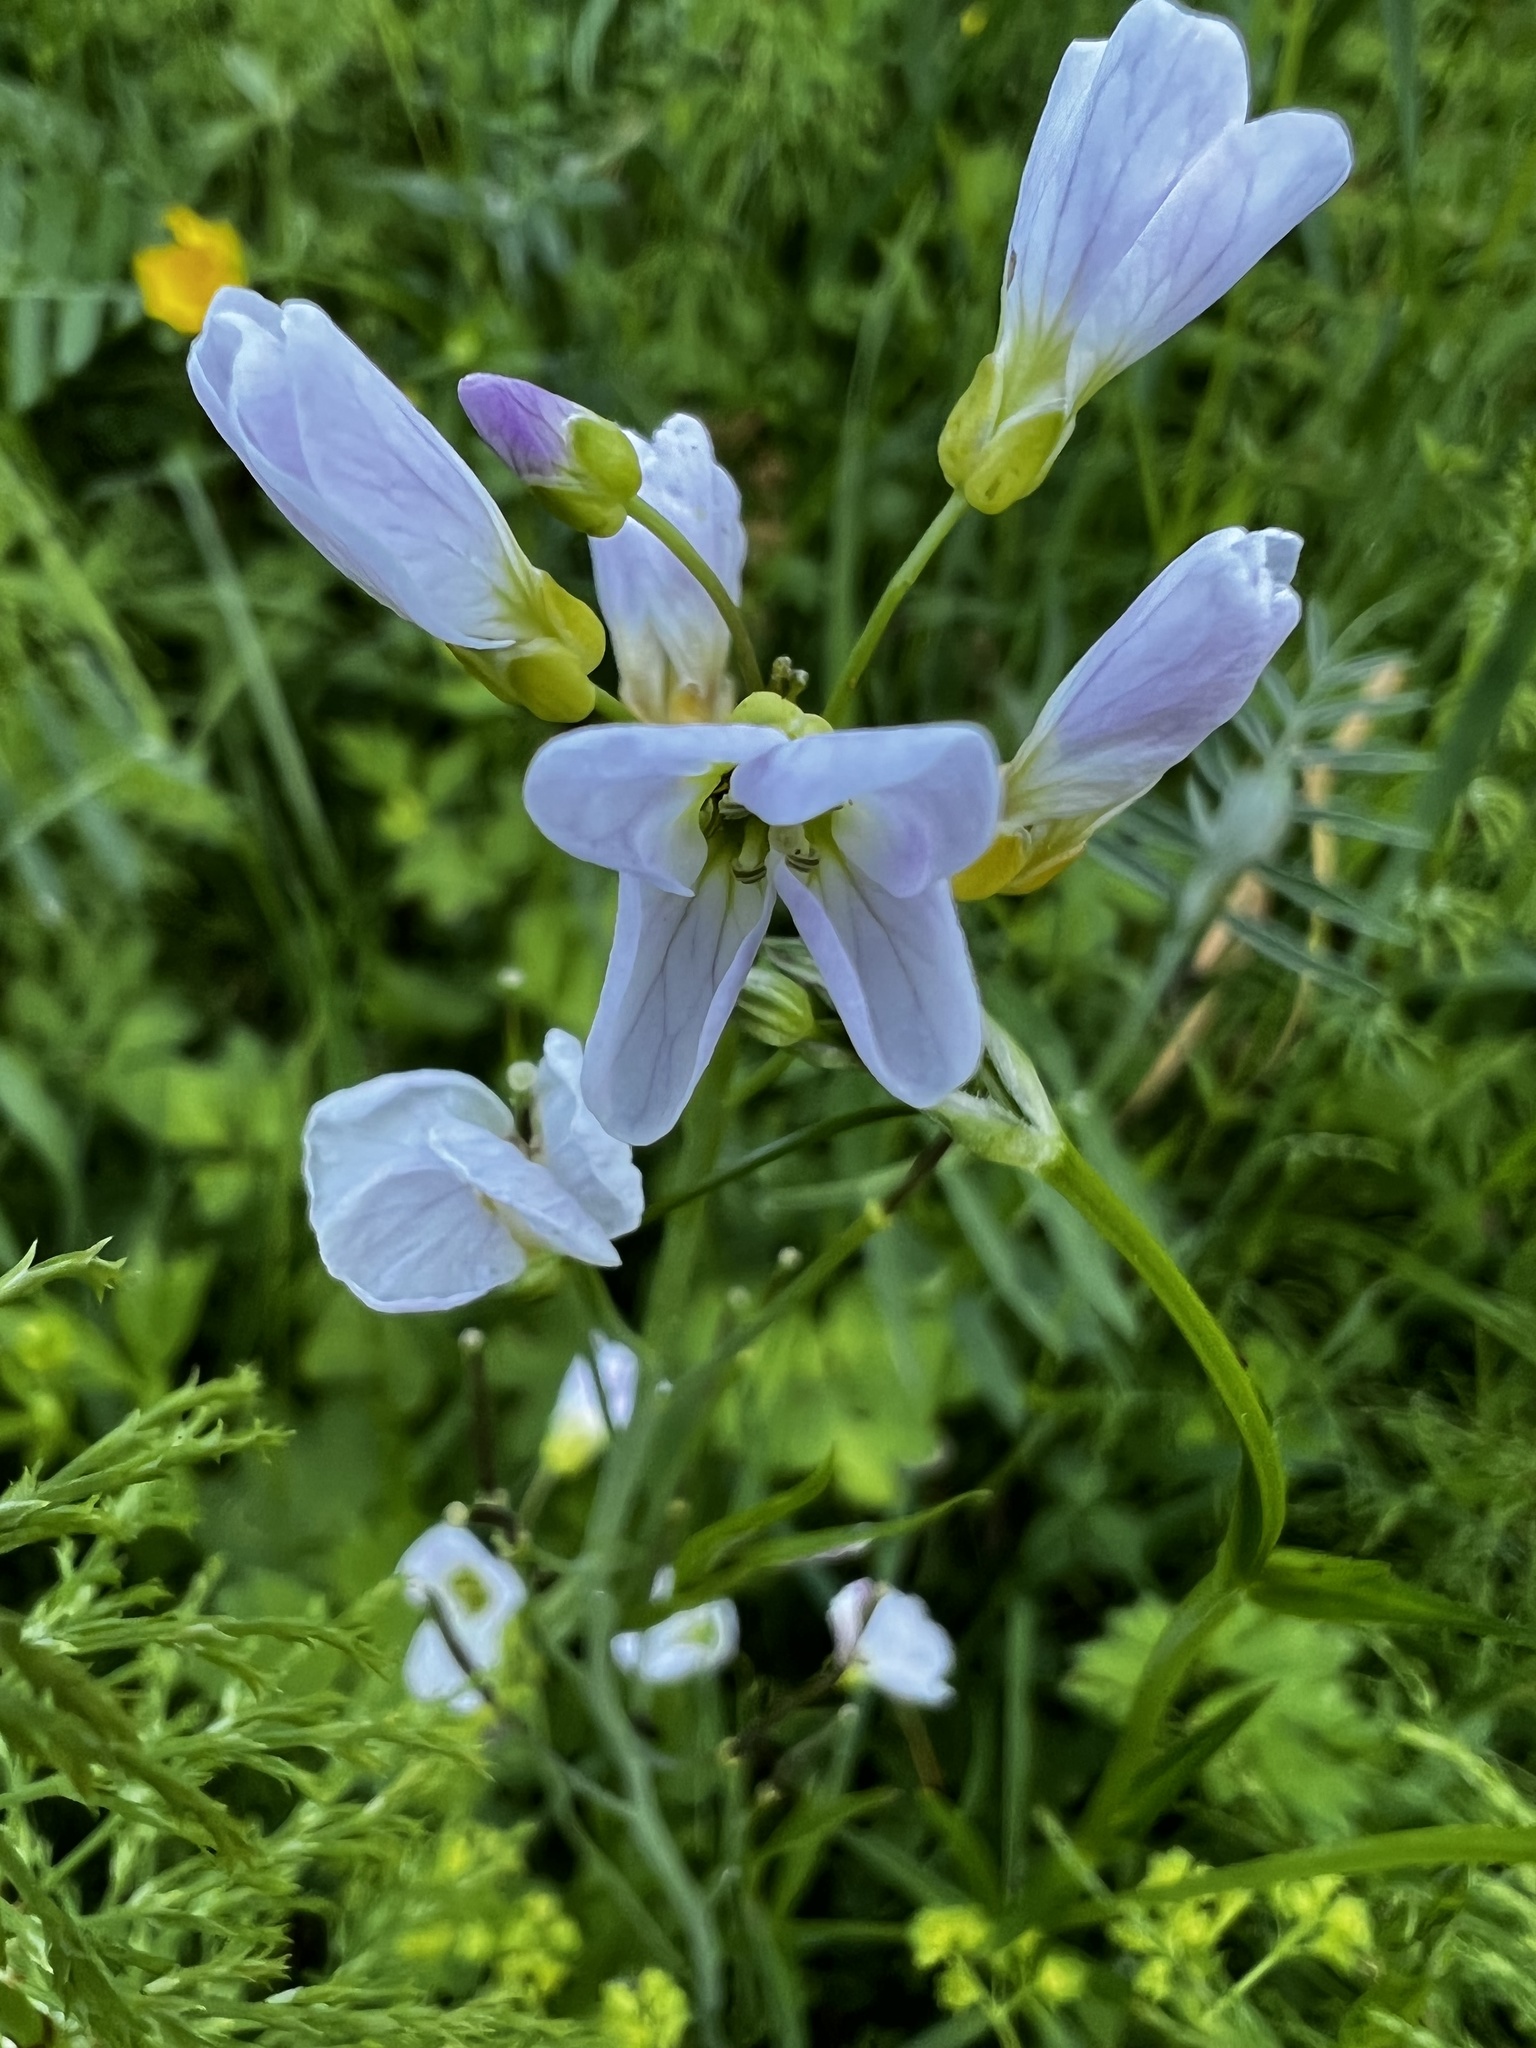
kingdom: Plantae
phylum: Tracheophyta
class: Magnoliopsida
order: Brassicales
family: Brassicaceae
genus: Cardamine
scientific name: Cardamine pratensis
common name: Cuckoo flower
